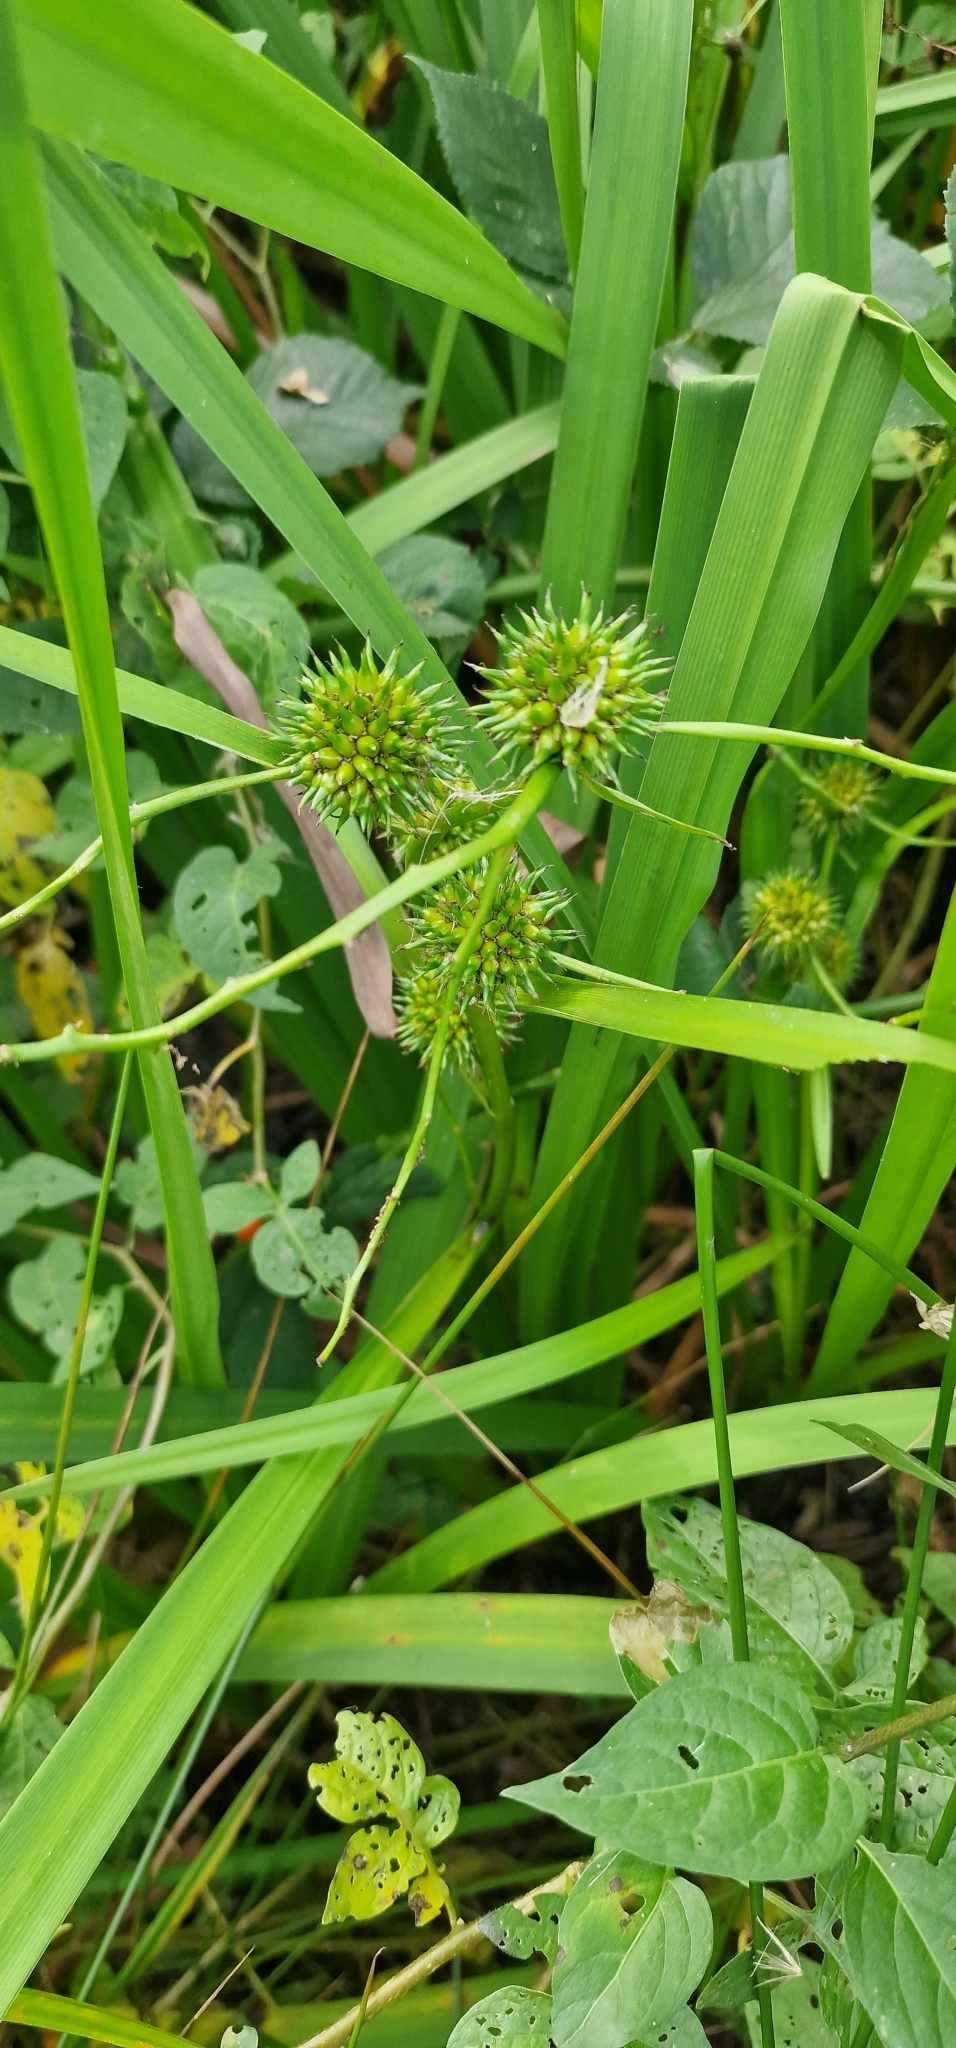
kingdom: Plantae
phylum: Tracheophyta
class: Liliopsida
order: Poales
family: Typhaceae
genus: Sparganium
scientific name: Sparganium erectum
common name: Branched bur-reed
